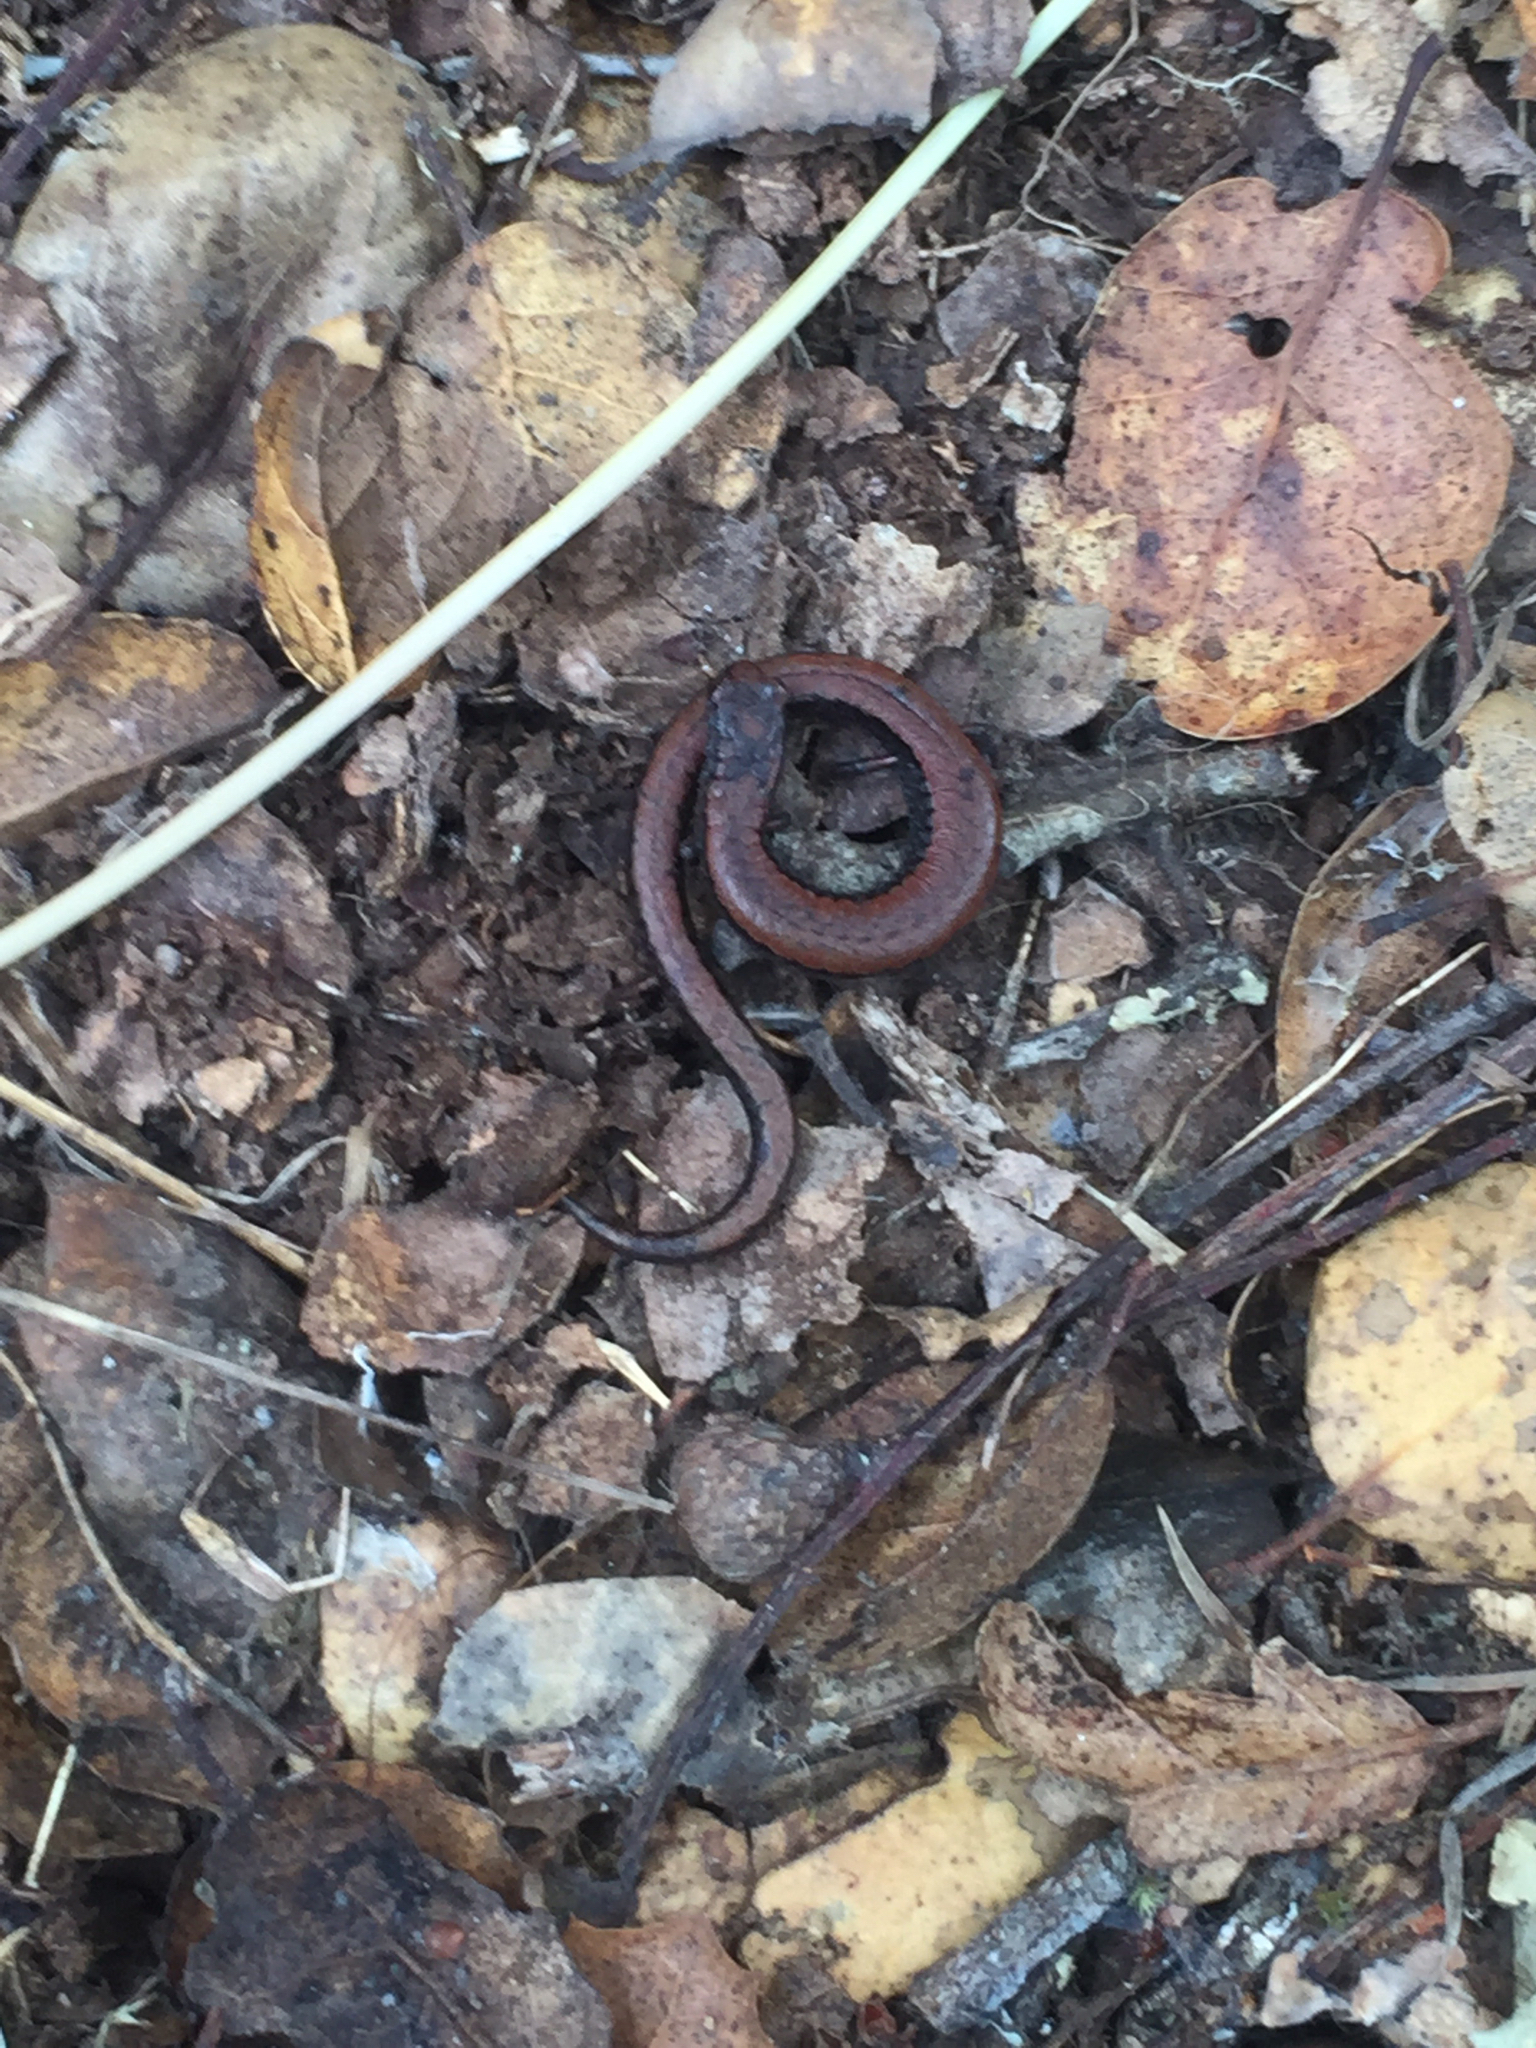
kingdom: Animalia
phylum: Chordata
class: Amphibia
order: Caudata
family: Plethodontidae
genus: Batrachoseps
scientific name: Batrachoseps attenuatus
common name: California slender salamander
